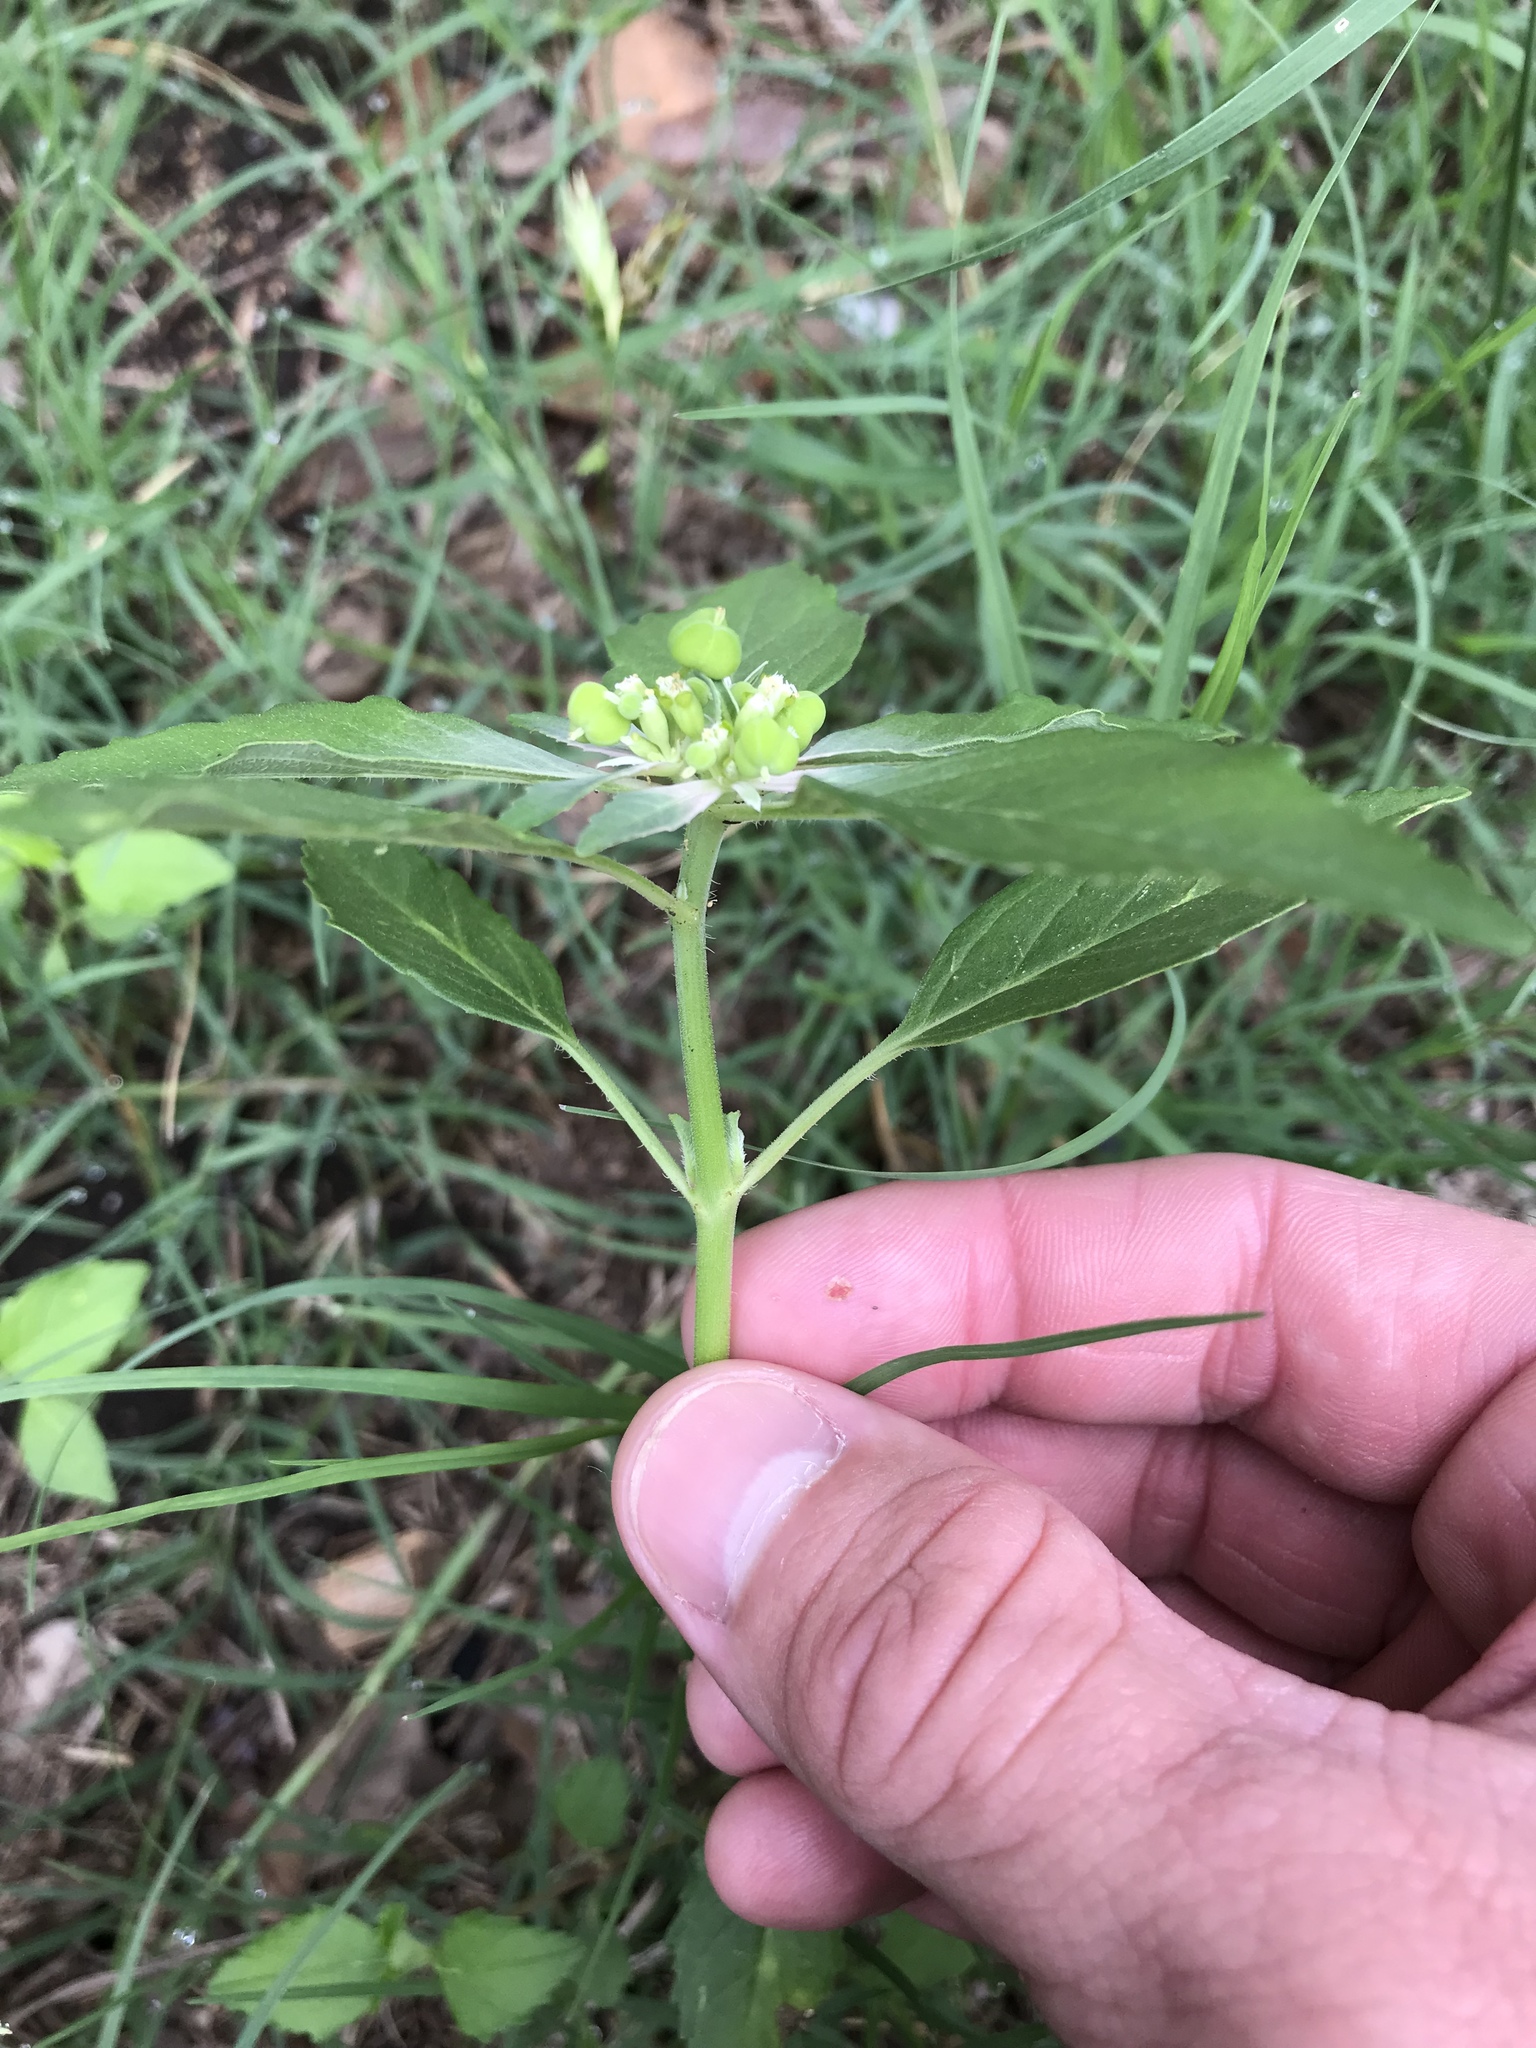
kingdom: Plantae
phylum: Tracheophyta
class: Magnoliopsida
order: Malpighiales
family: Euphorbiaceae
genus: Euphorbia
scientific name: Euphorbia dentata
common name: Dentate spurge
